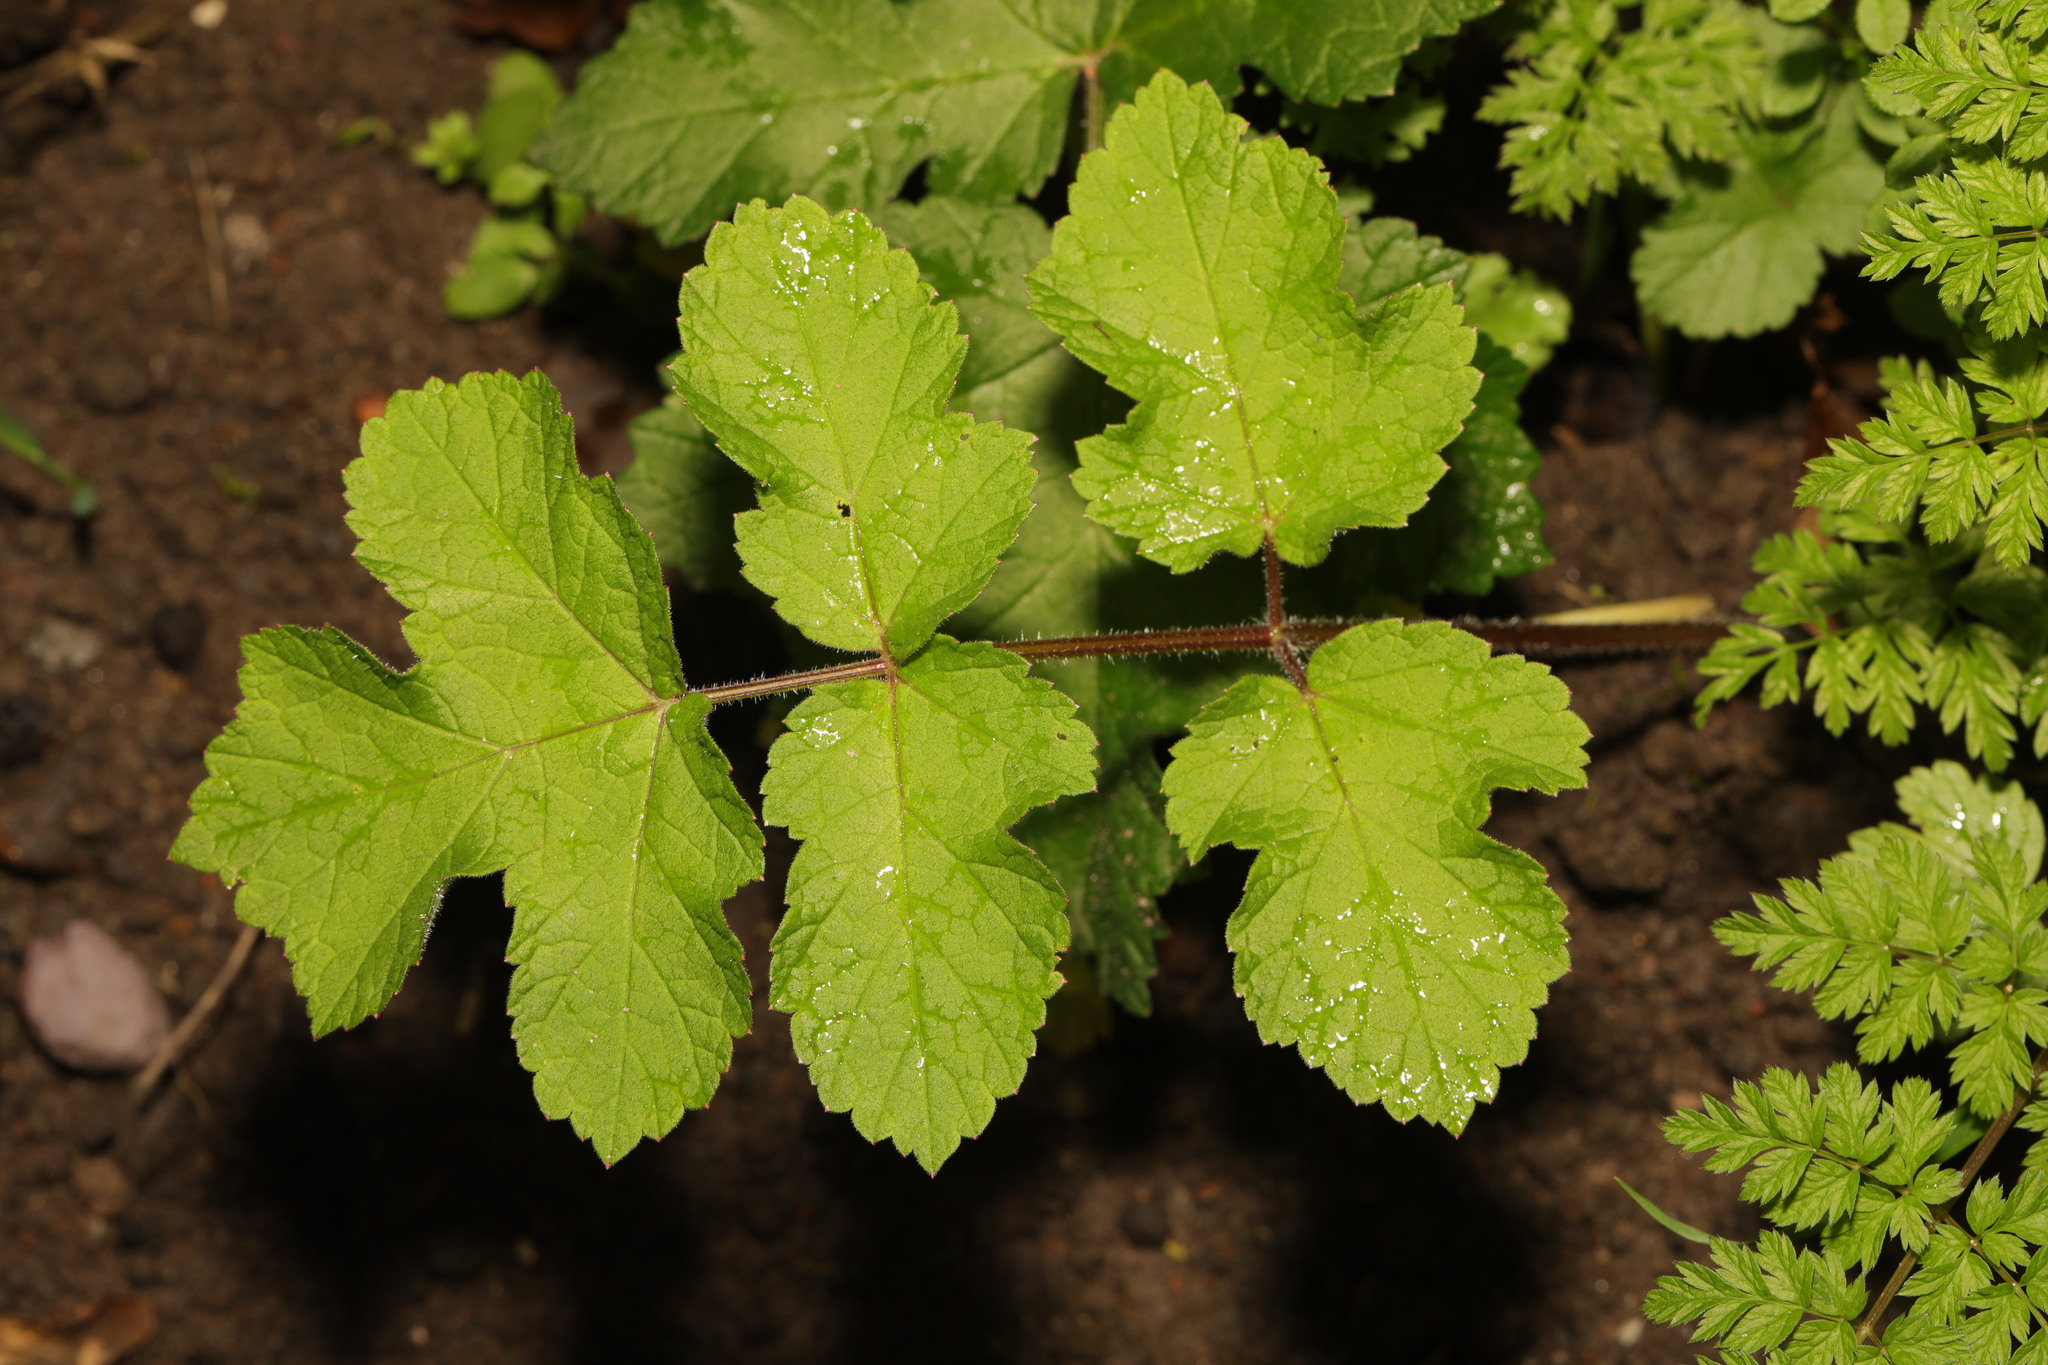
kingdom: Plantae
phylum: Tracheophyta
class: Magnoliopsida
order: Apiales
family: Apiaceae
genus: Heracleum
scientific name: Heracleum sphondylium
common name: Hogweed
